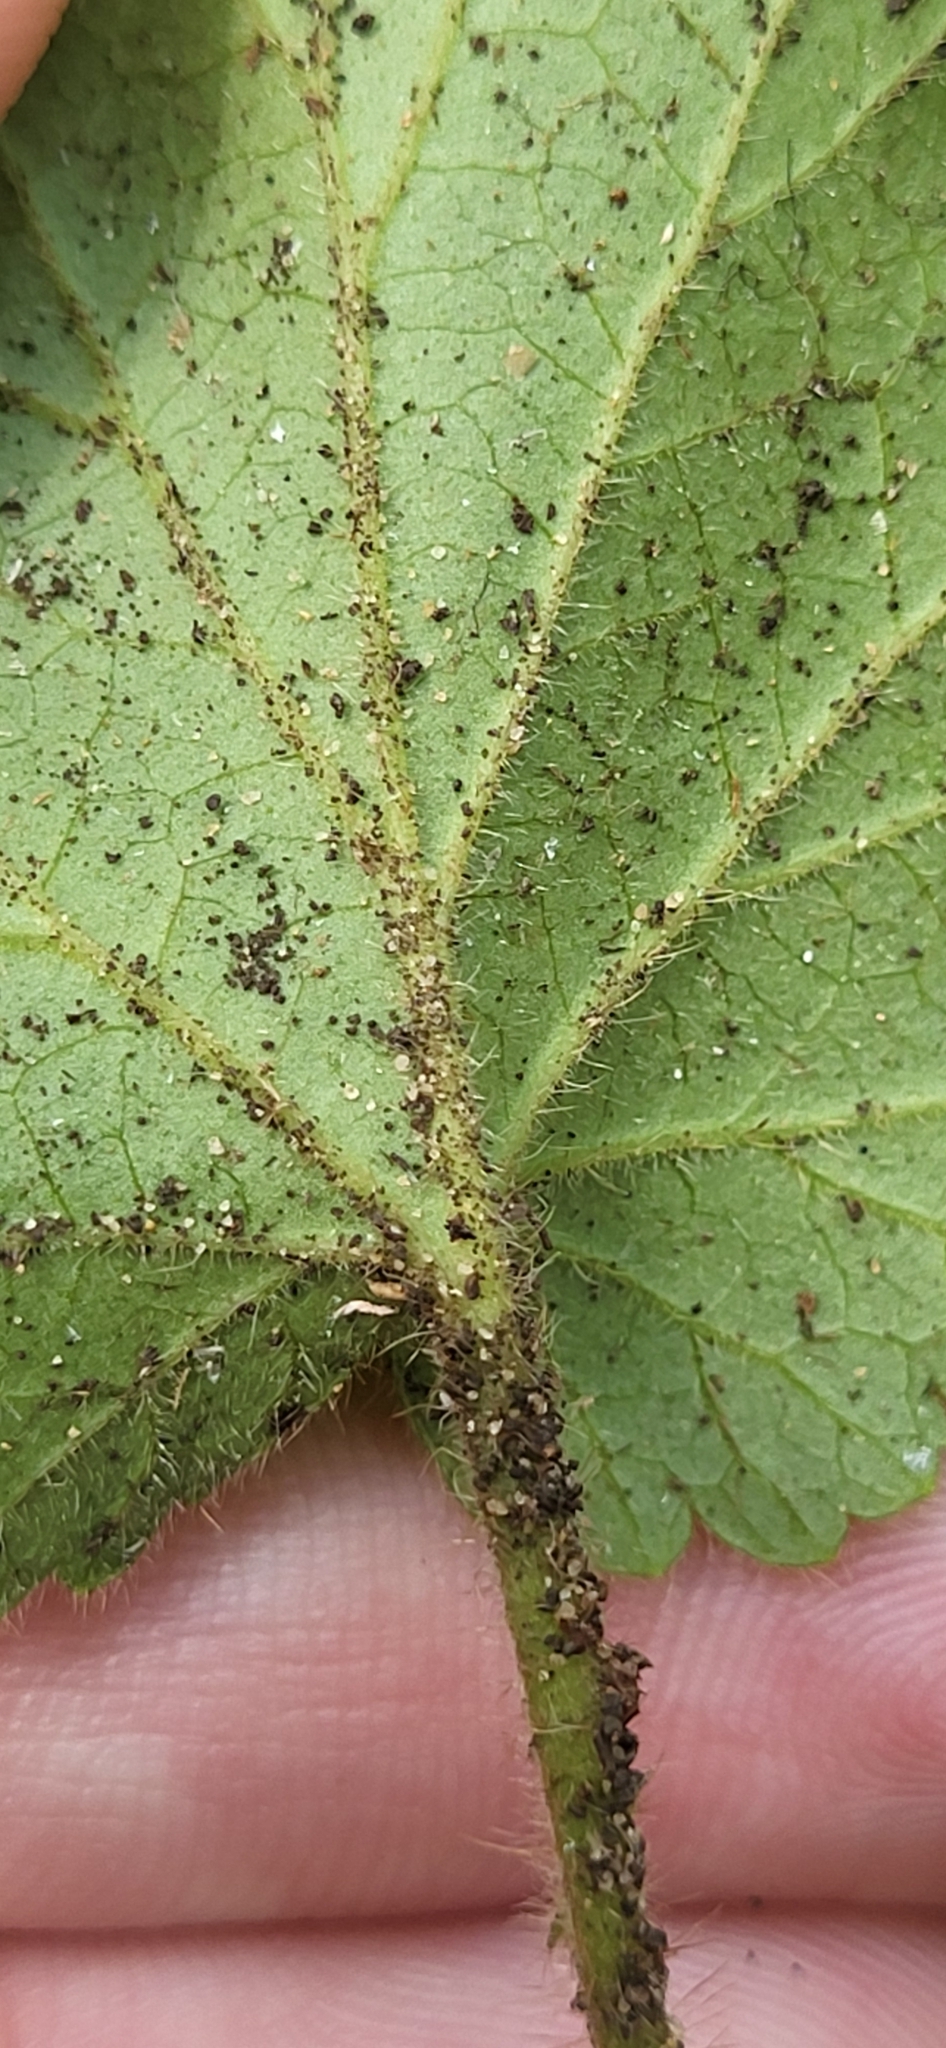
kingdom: Plantae
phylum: Tracheophyta
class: Magnoliopsida
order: Rosales
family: Rosaceae
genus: Geum
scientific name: Geum canadense
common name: White avens
